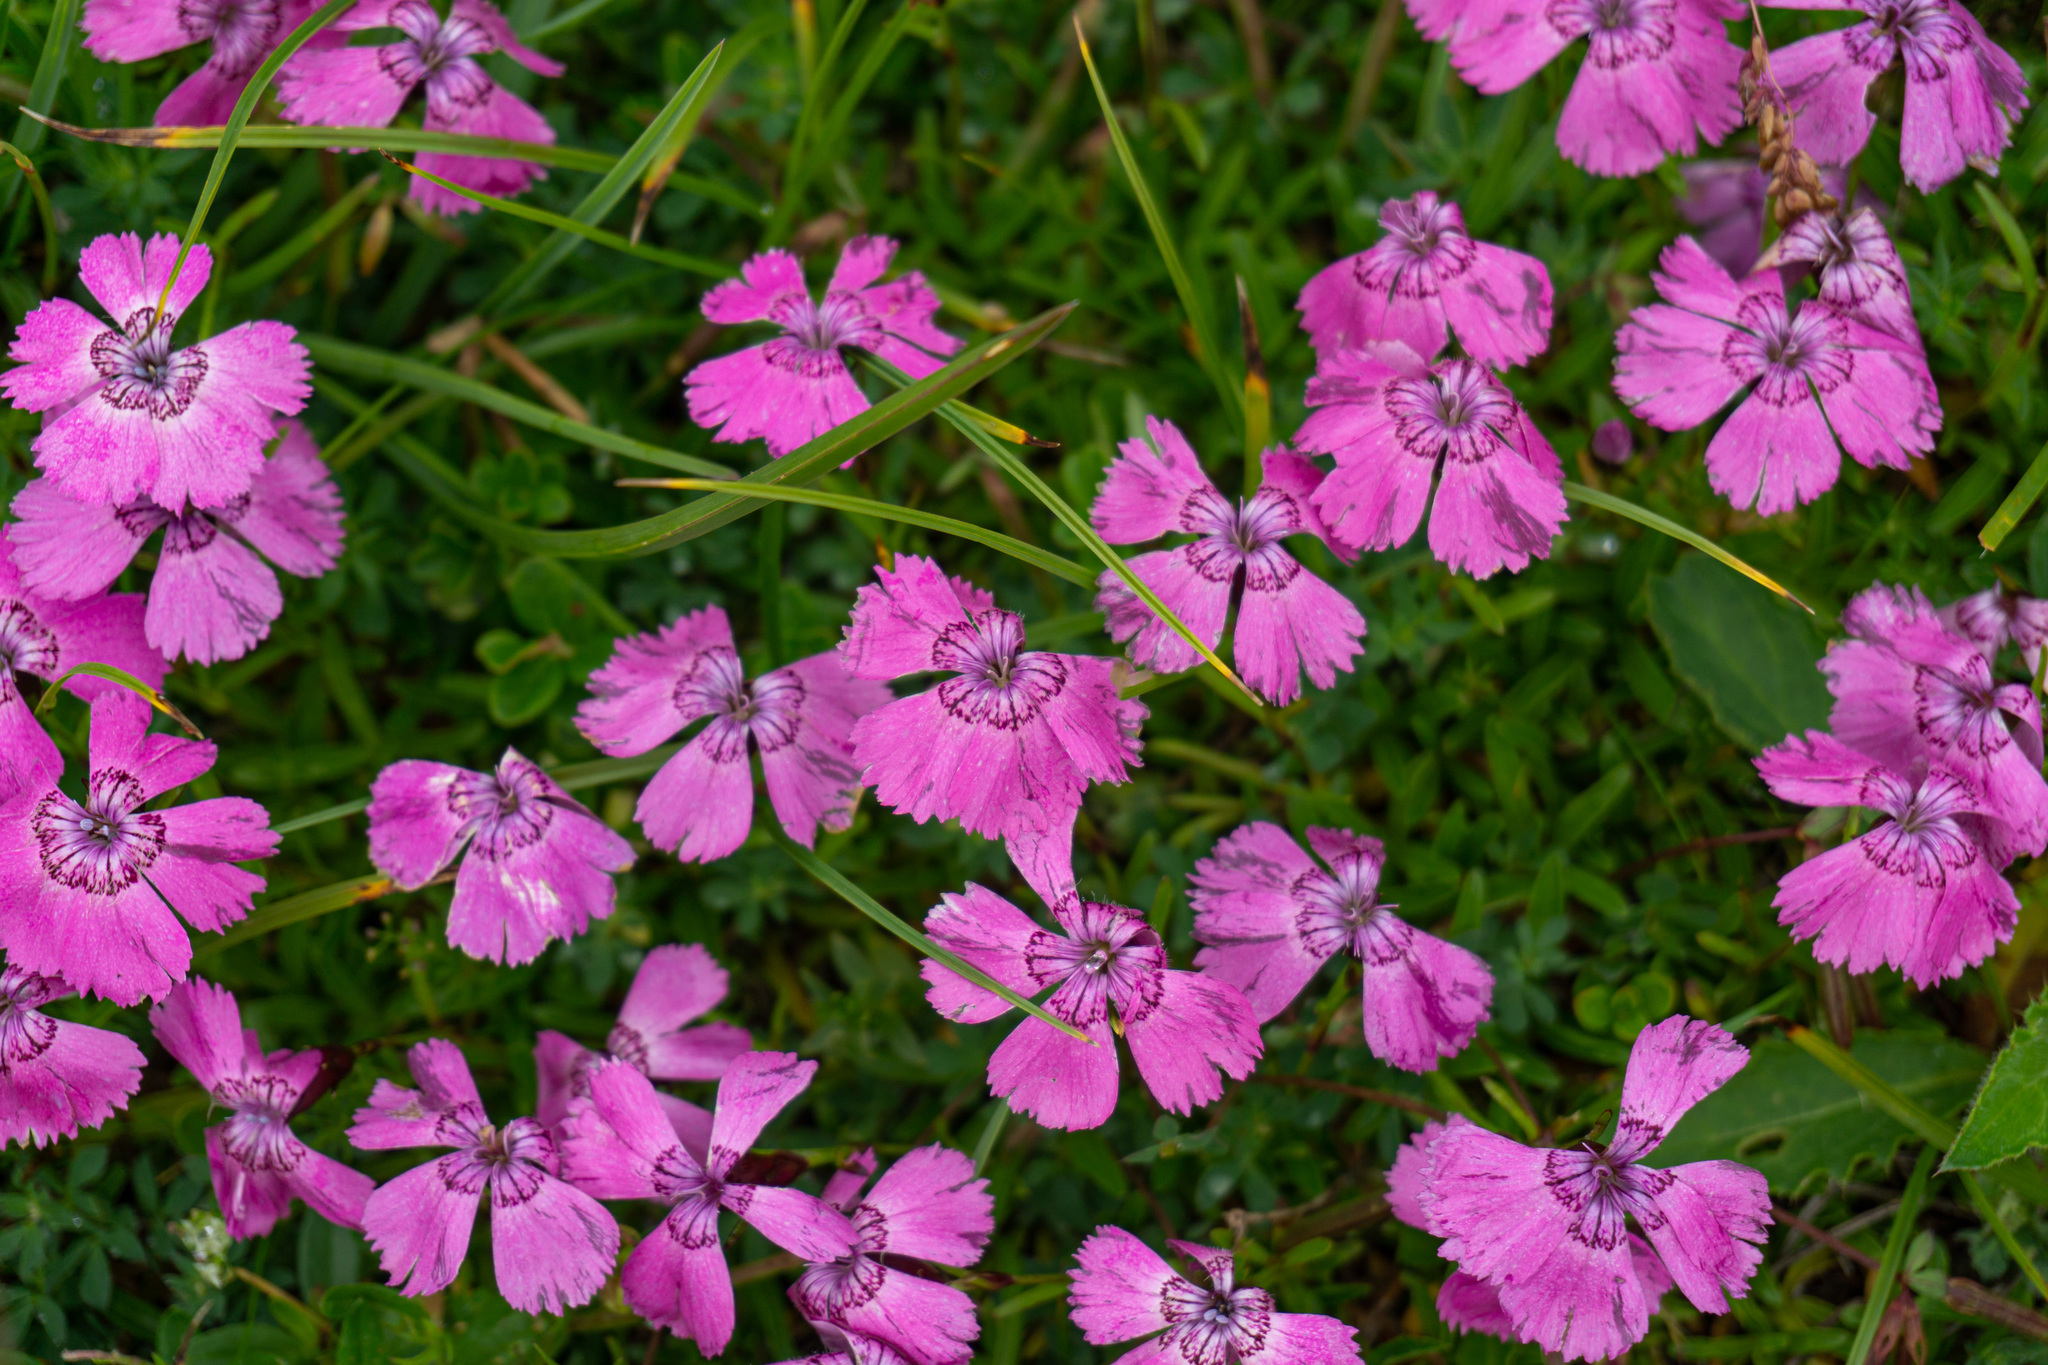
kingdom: Plantae
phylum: Tracheophyta
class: Magnoliopsida
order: Caryophyllales
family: Caryophyllaceae
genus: Dianthus
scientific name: Dianthus alpinus
